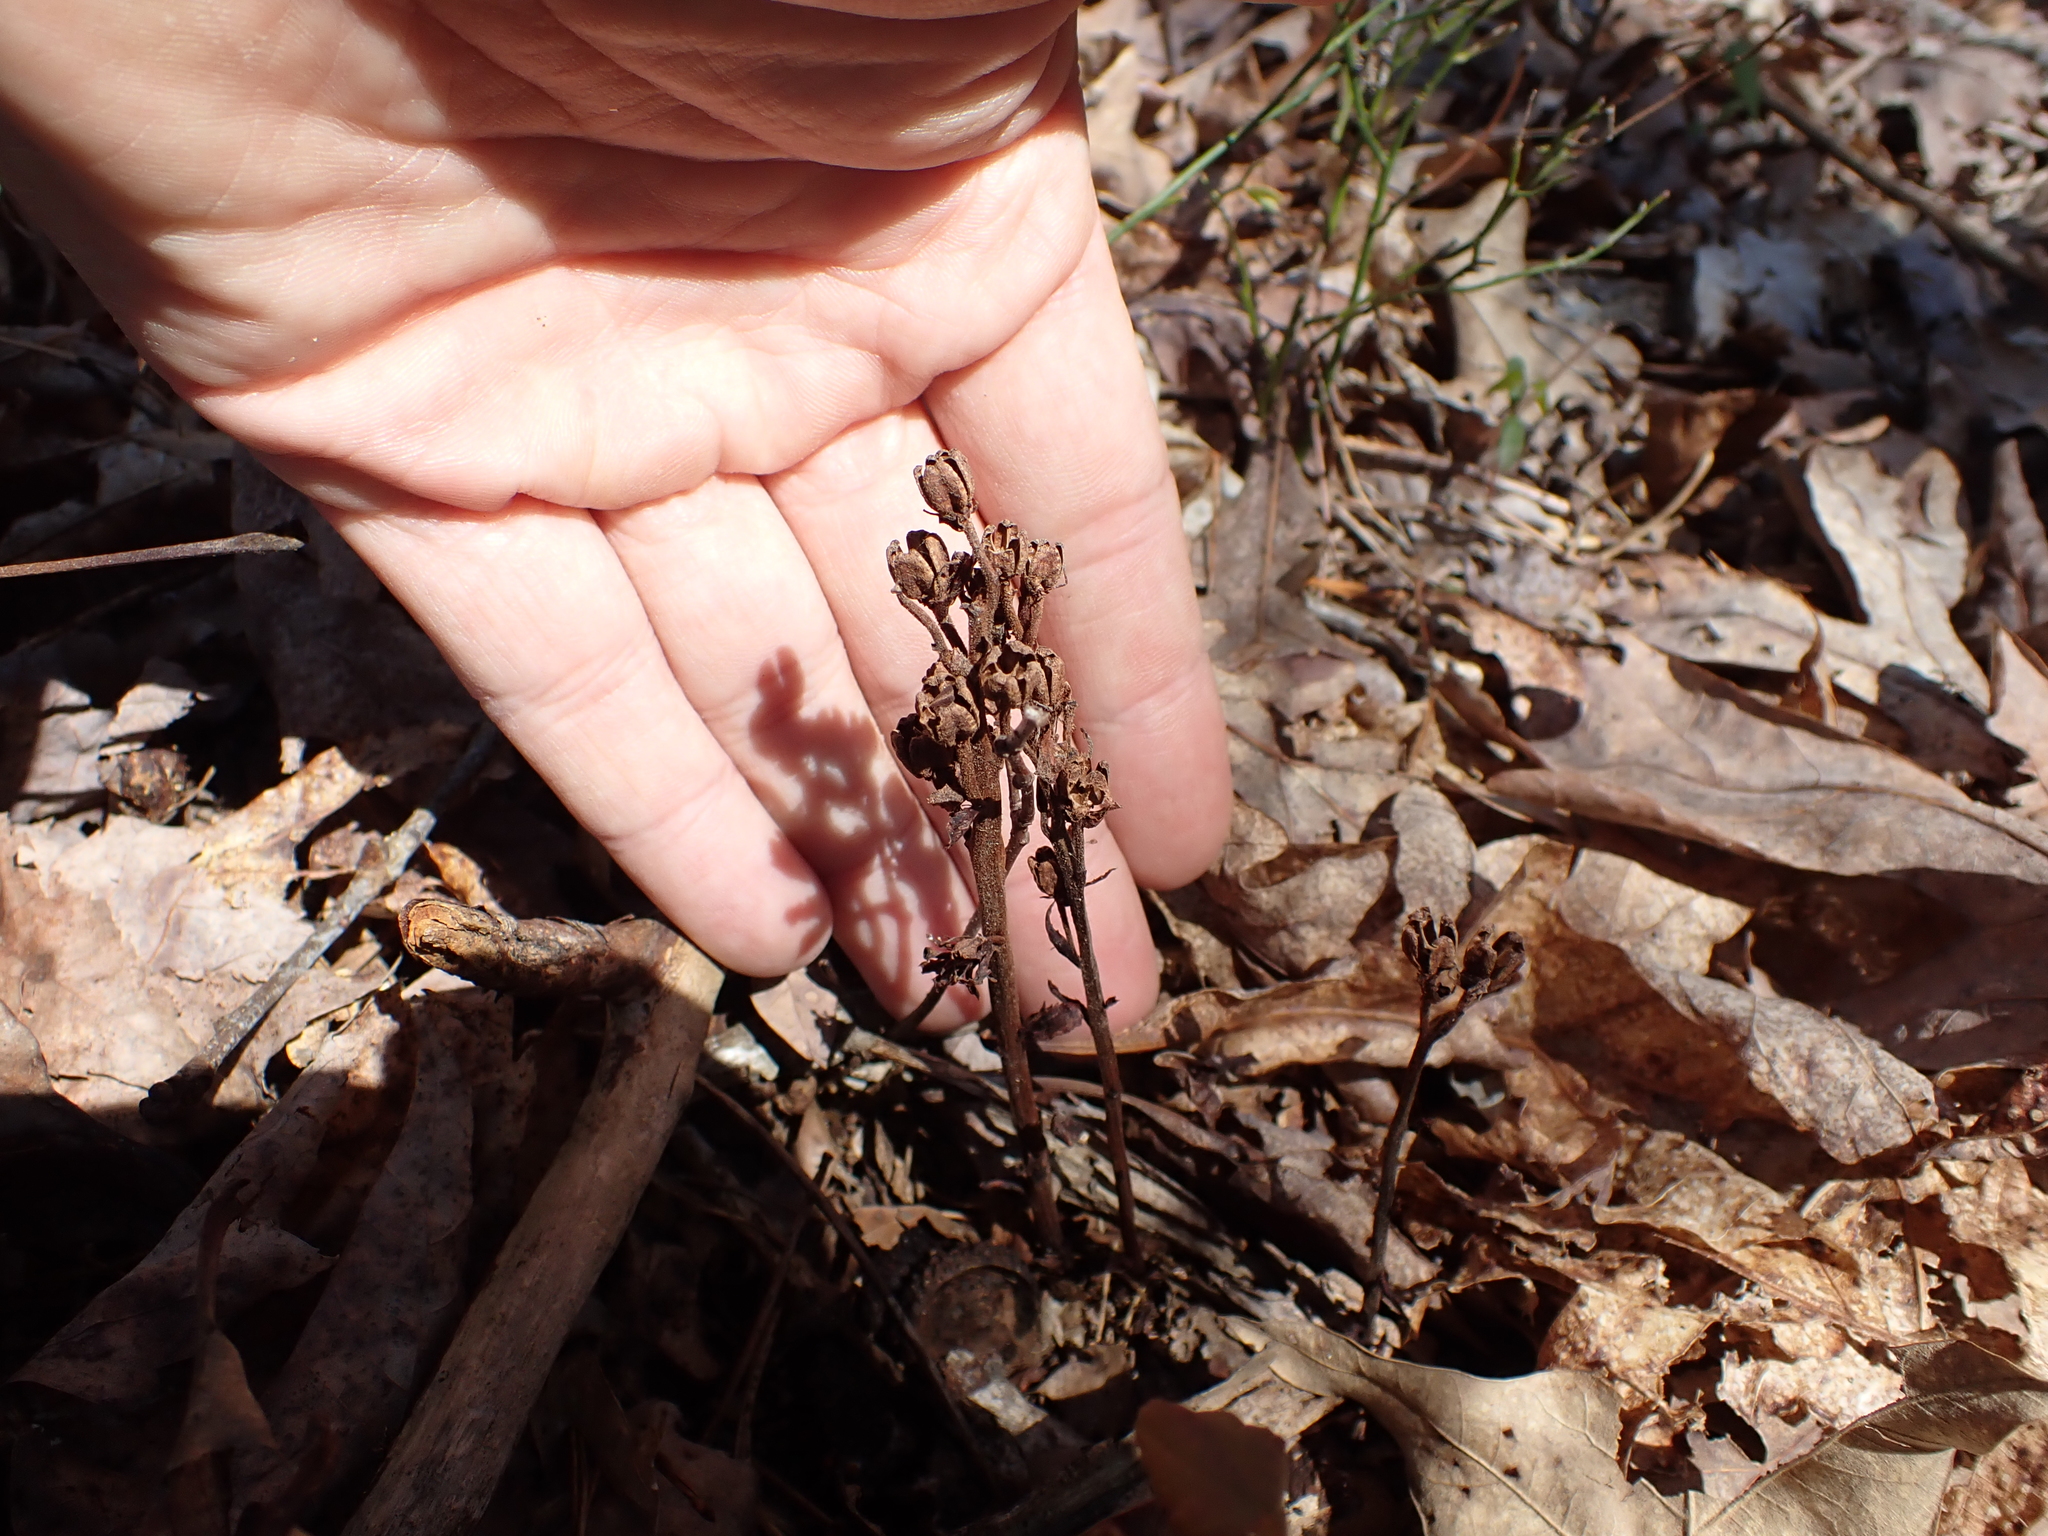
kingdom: Plantae
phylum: Tracheophyta
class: Magnoliopsida
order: Ericales
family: Ericaceae
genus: Hypopitys
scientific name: Hypopitys monotropa
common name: Yellow bird's-nest
